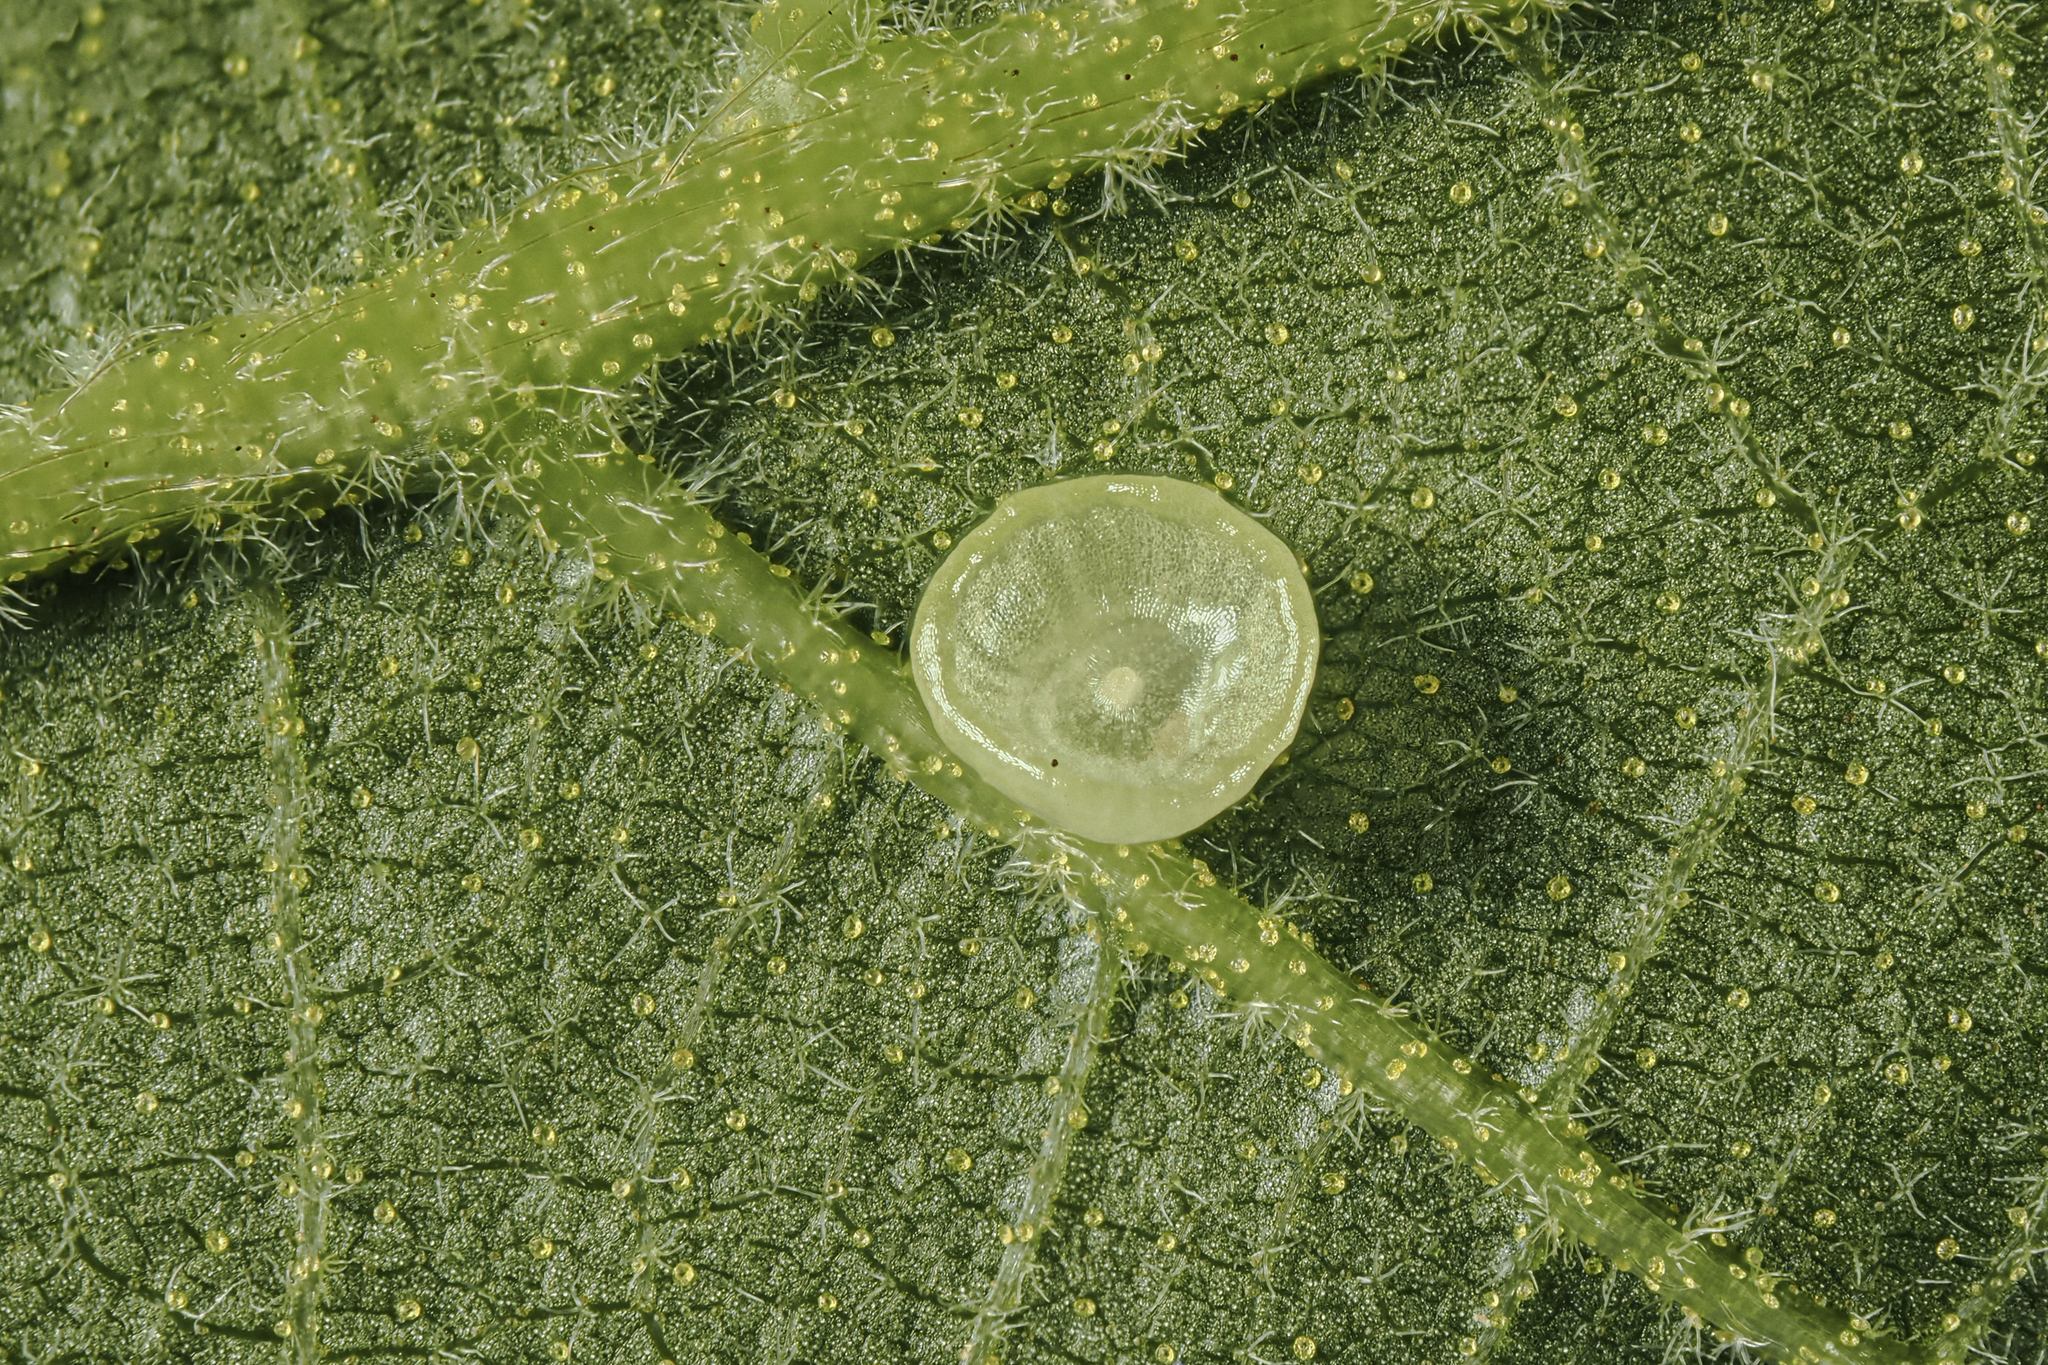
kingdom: Animalia
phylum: Arthropoda
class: Insecta
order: Diptera
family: Cecidomyiidae
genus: Caryomyia
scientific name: Caryomyia flaticrustum
